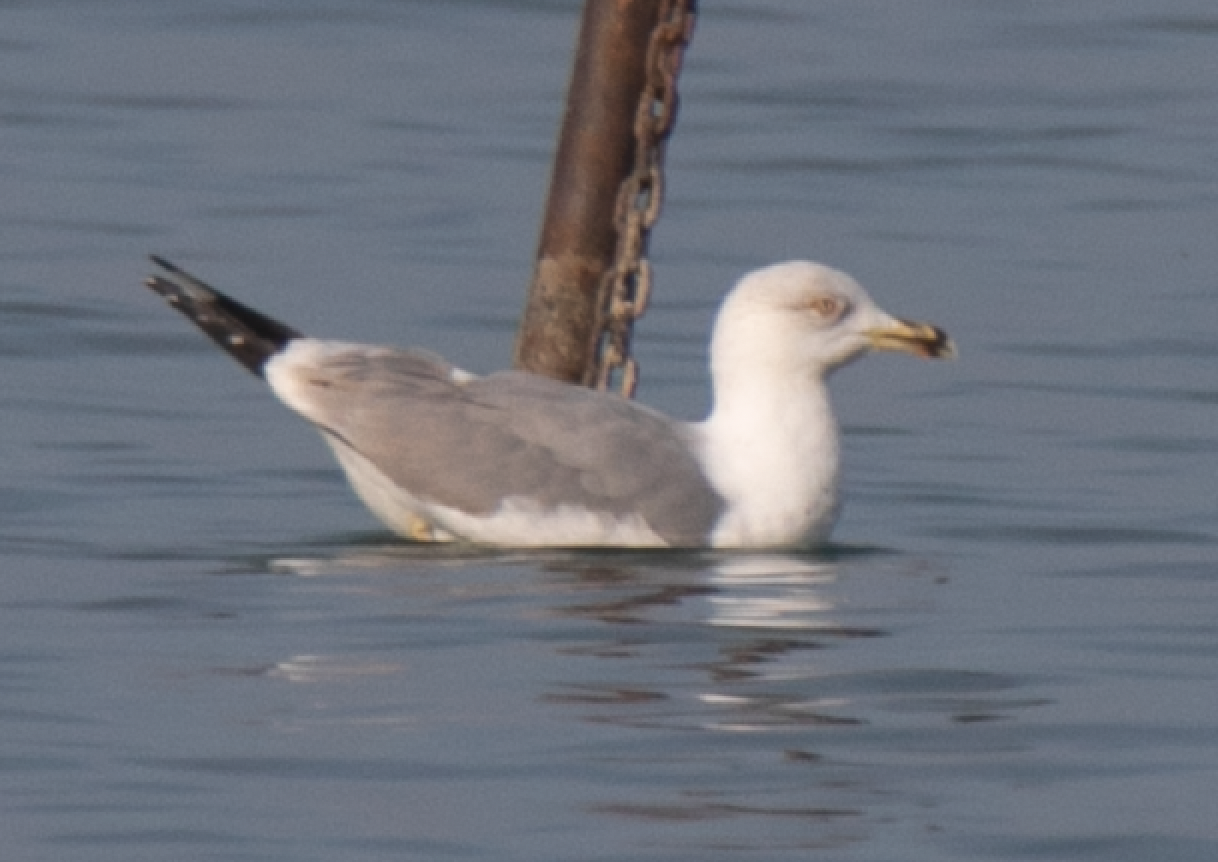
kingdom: Animalia
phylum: Chordata
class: Aves
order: Charadriiformes
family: Laridae
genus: Larus
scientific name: Larus michahellis
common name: Yellow-legged gull
